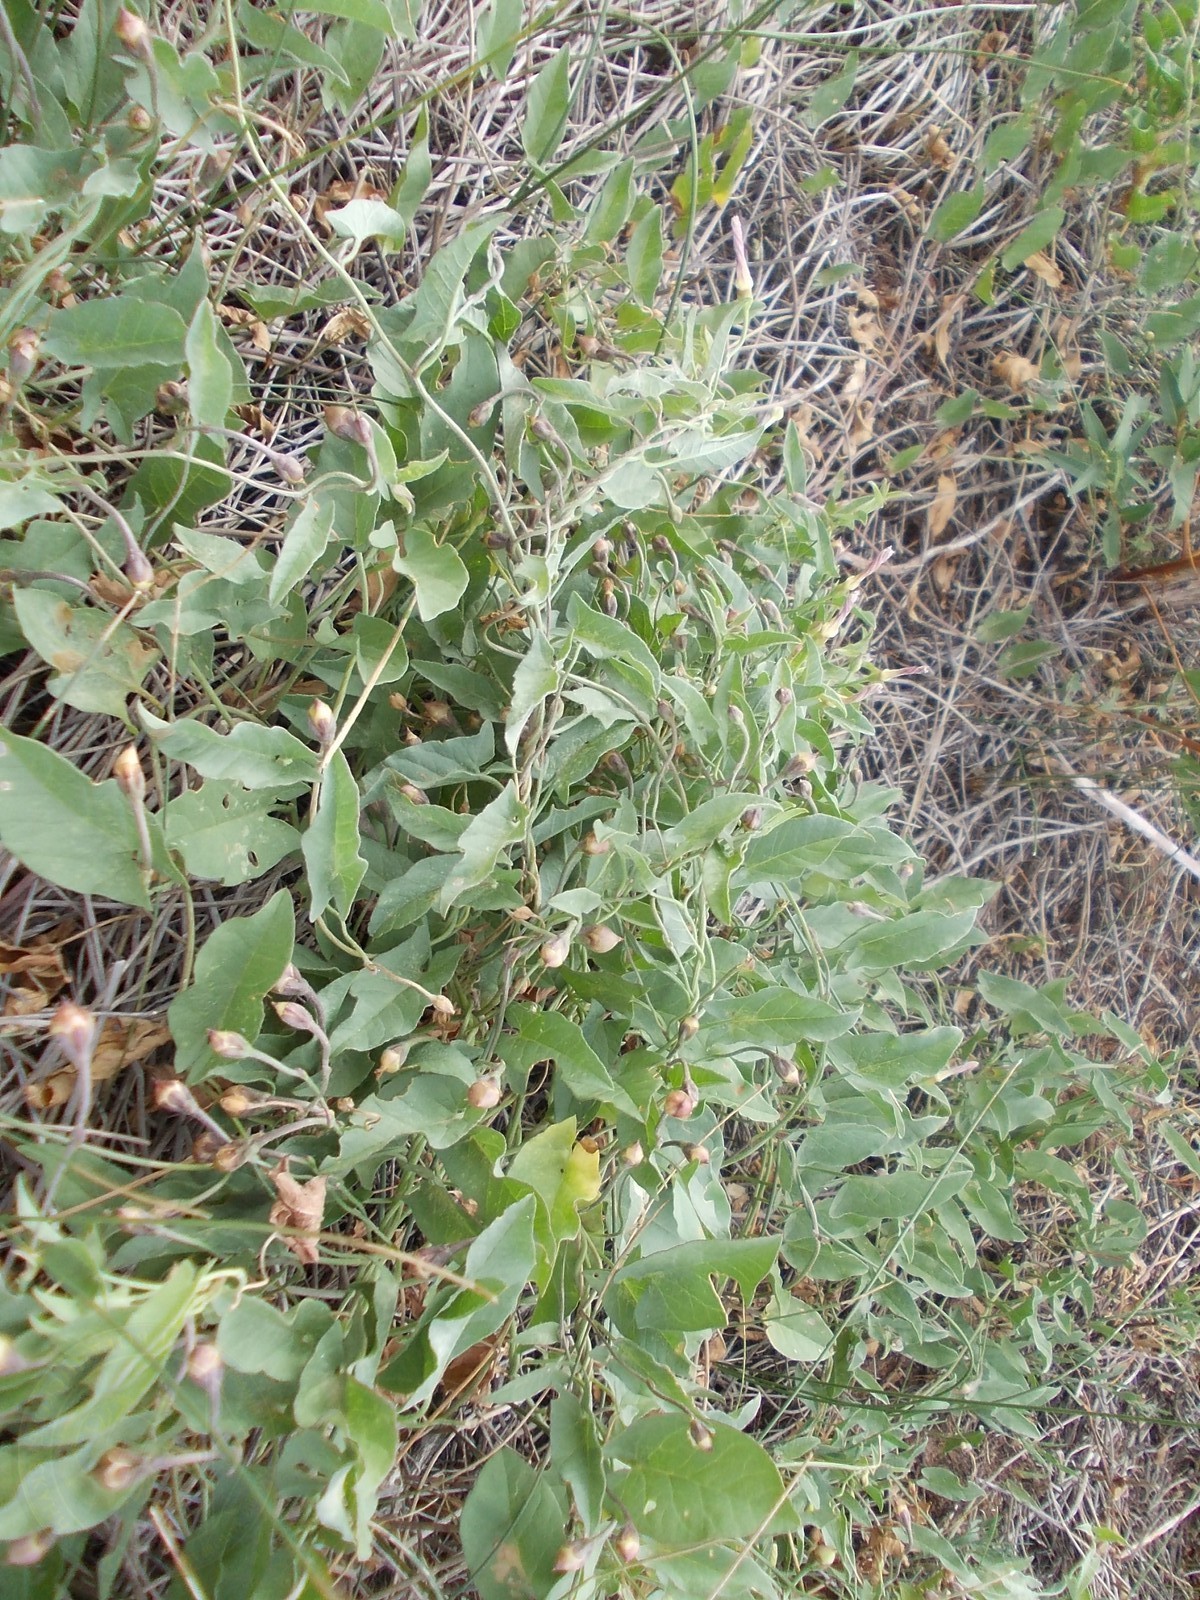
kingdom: Plantae
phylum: Tracheophyta
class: Magnoliopsida
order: Solanales
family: Convolvulaceae
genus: Convolvulus
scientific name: Convolvulus arvensis
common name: Field bindweed
